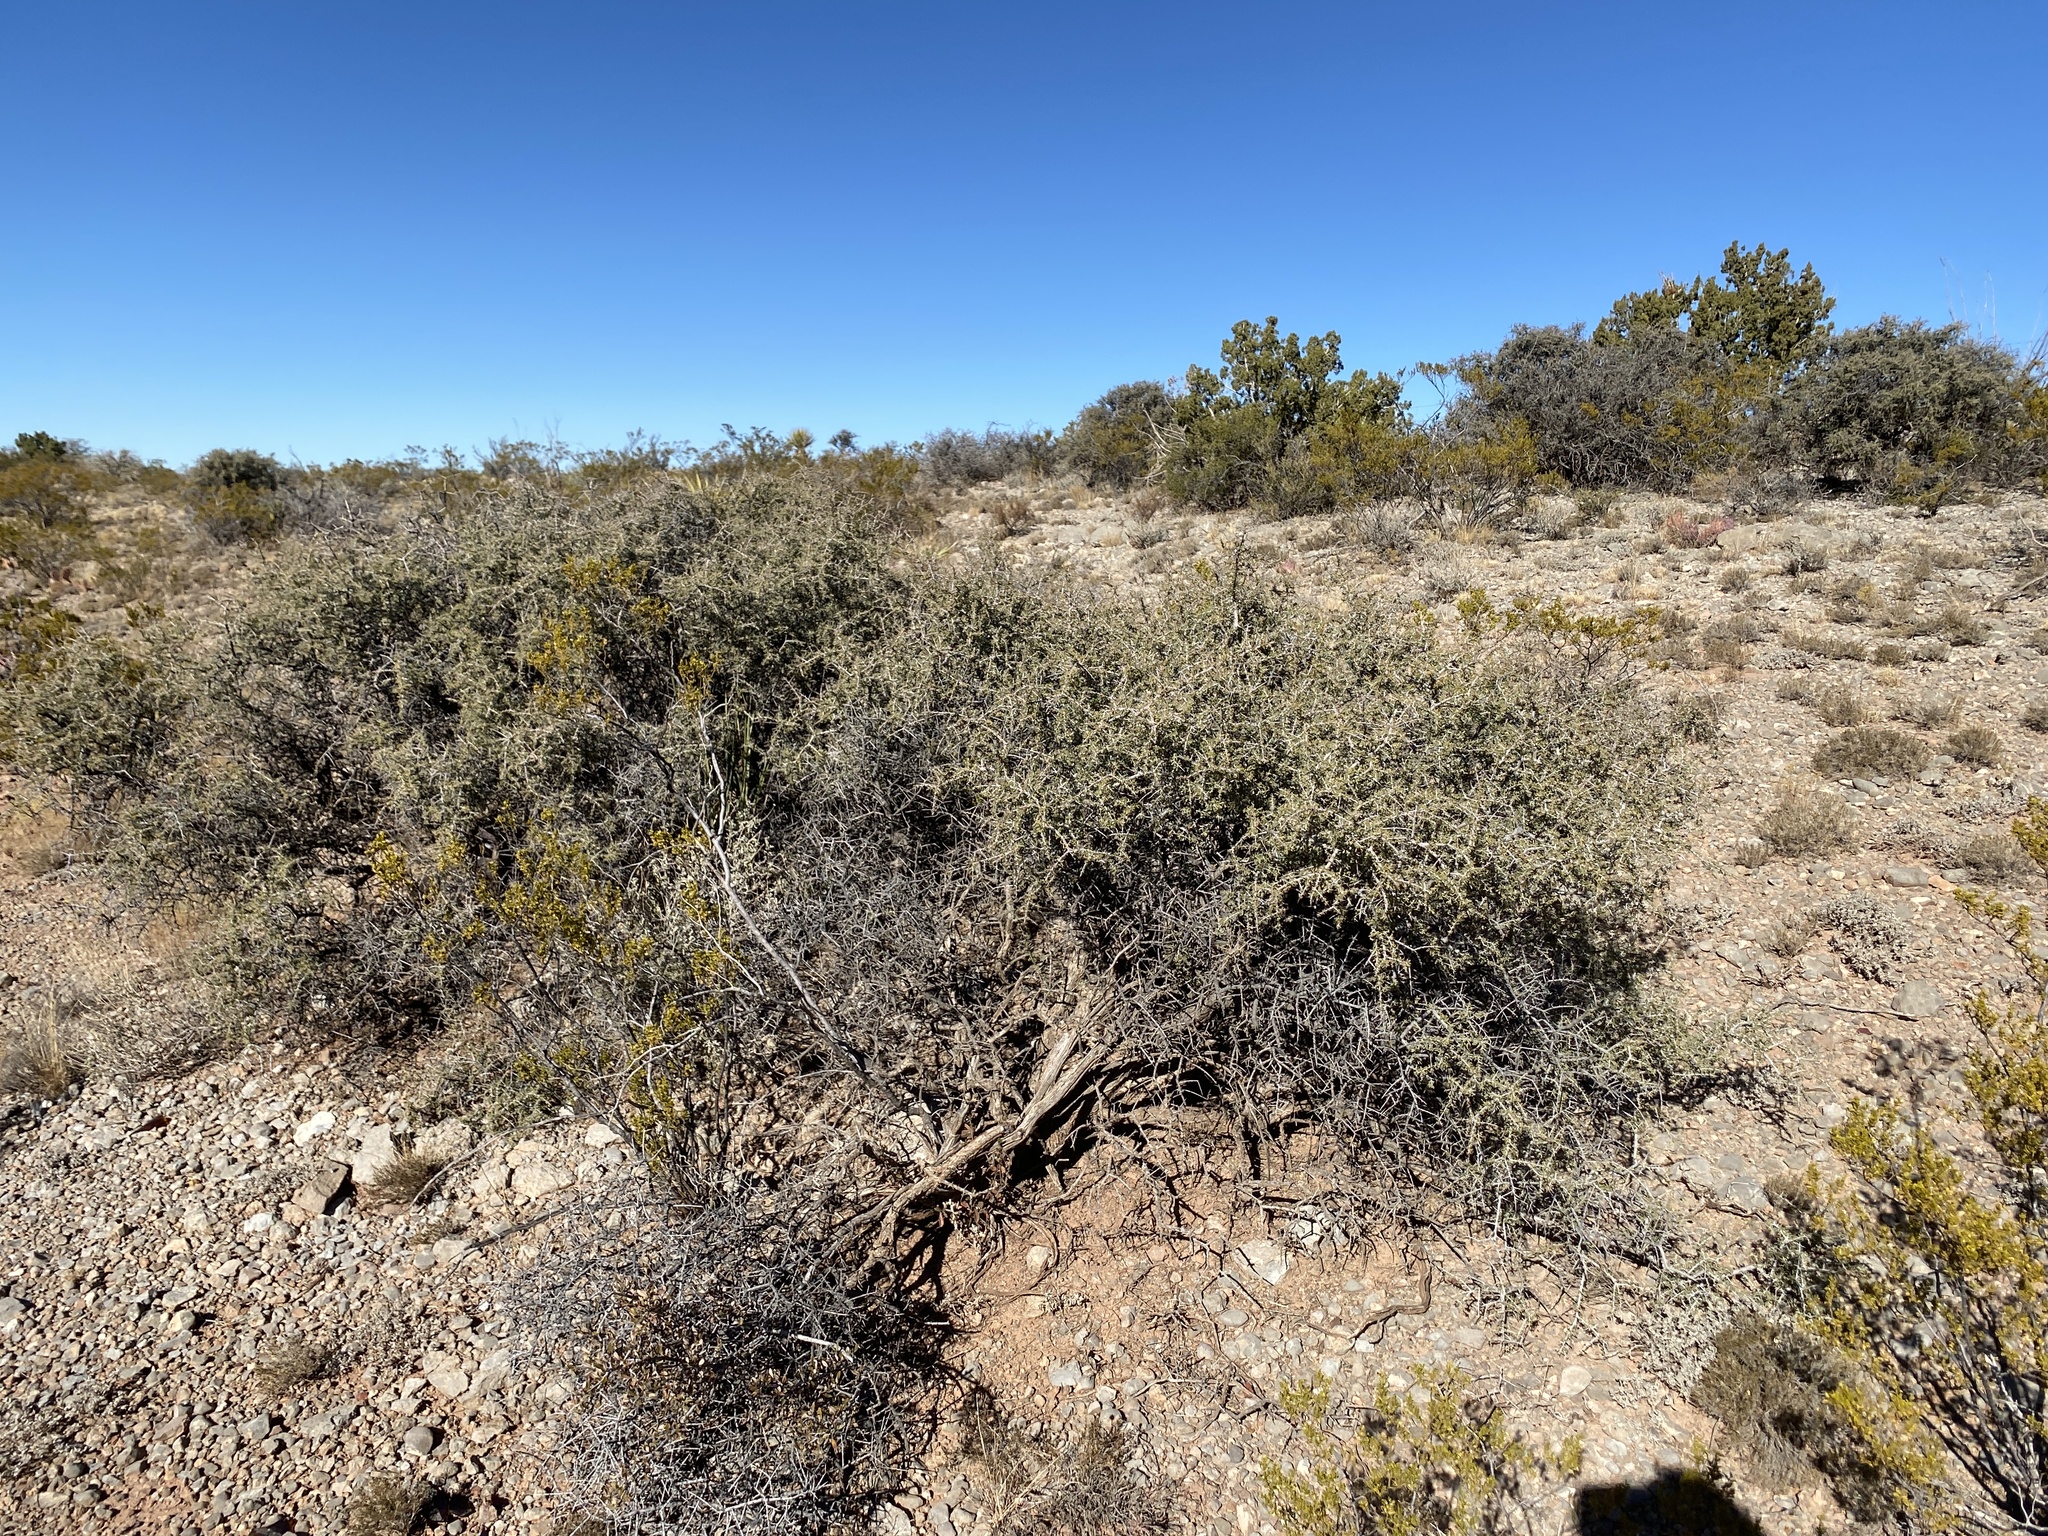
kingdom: Plantae
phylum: Tracheophyta
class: Magnoliopsida
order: Rosales
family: Rhamnaceae
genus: Condalia
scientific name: Condalia warnockii
